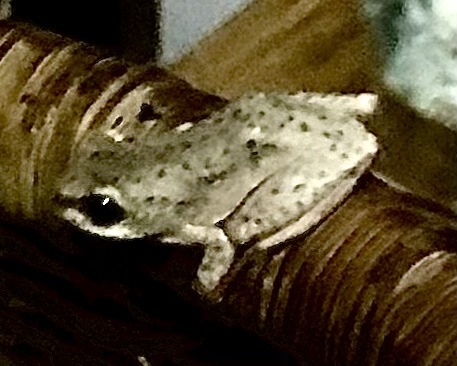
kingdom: Animalia
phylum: Chordata
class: Amphibia
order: Anura
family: Hyperoliidae
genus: Hyperolius
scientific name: Hyperolius marmoratus
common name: Painted reed frog
